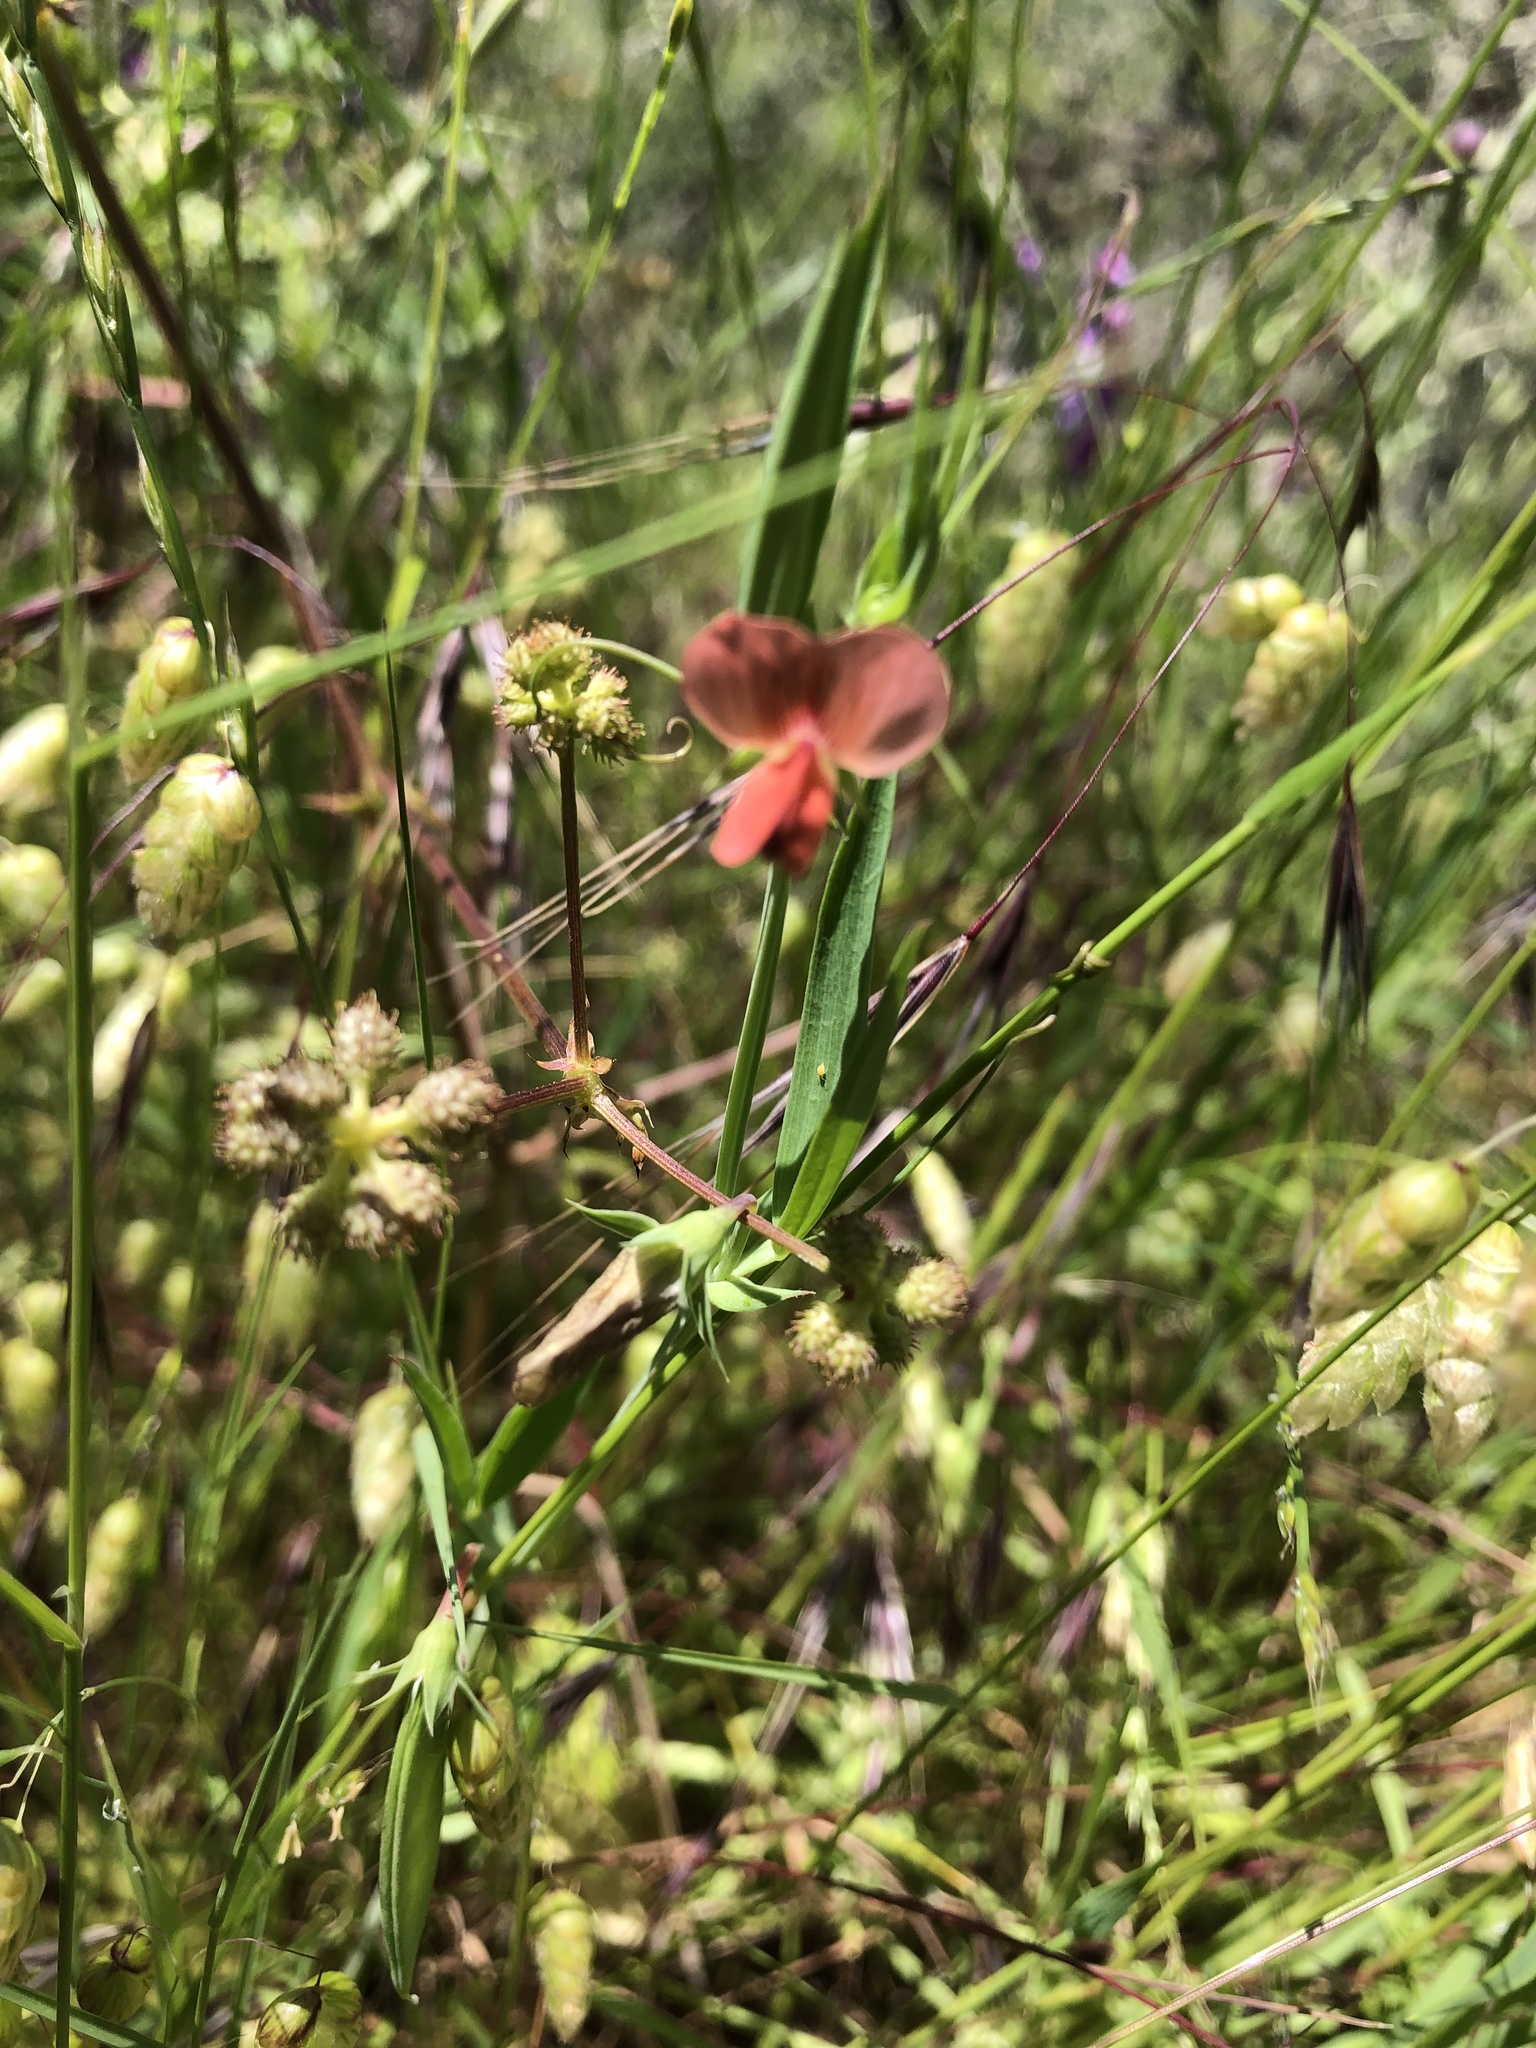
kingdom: Plantae
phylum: Tracheophyta
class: Magnoliopsida
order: Fabales
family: Fabaceae
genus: Lathyrus
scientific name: Lathyrus cicera
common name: Red vetchling
